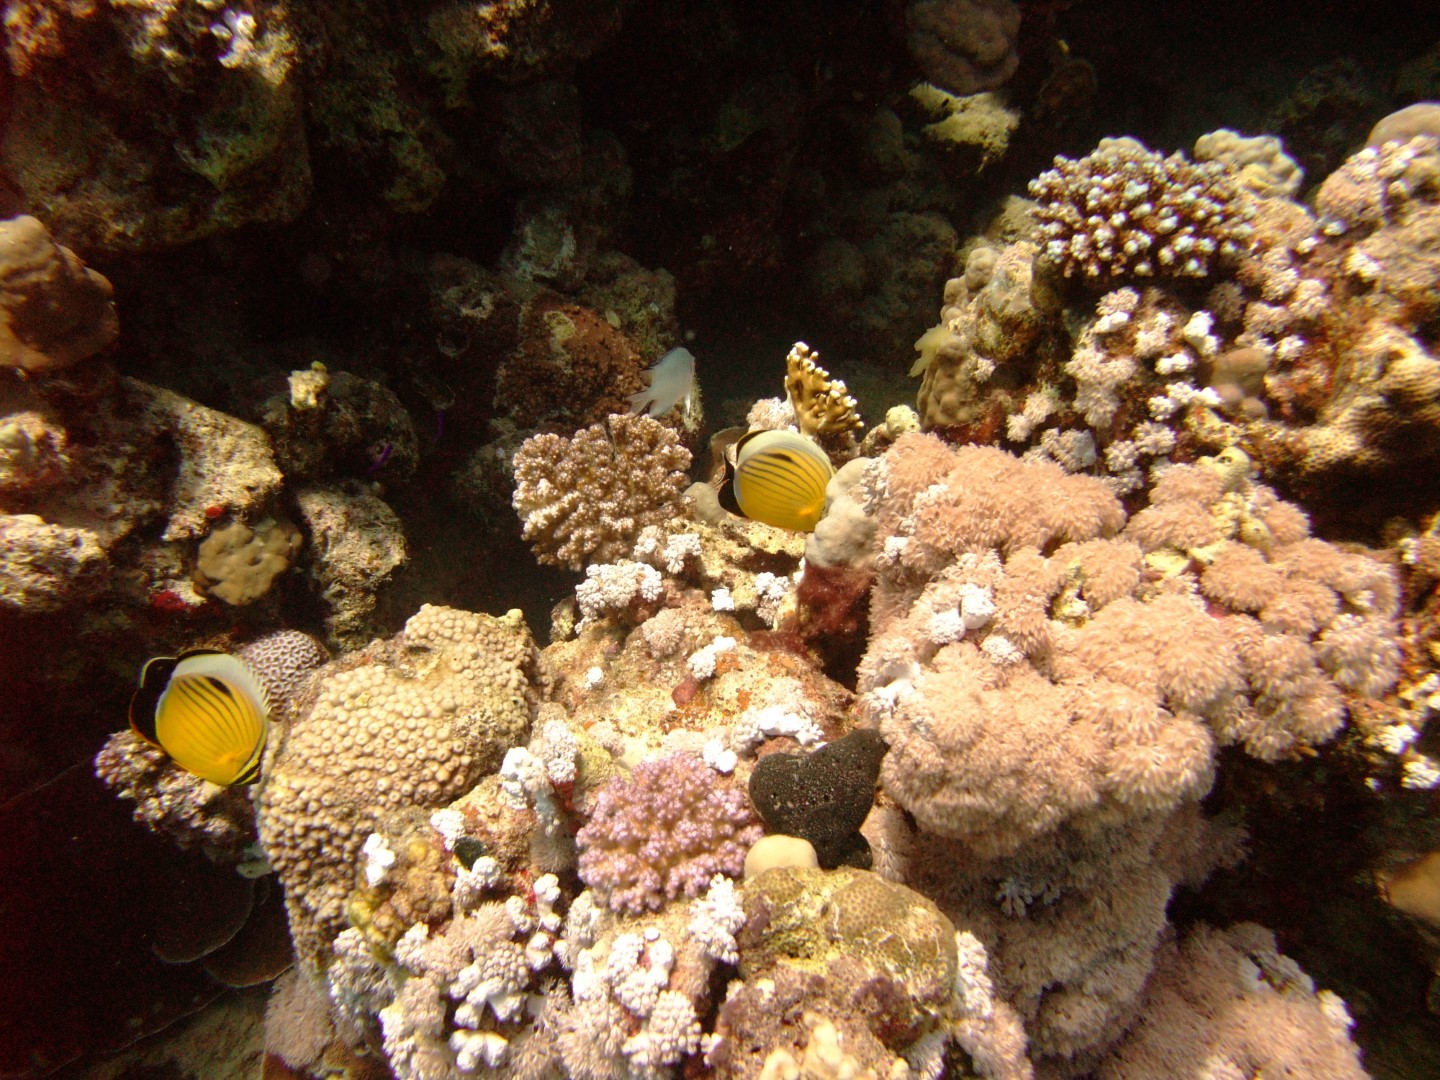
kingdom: Animalia
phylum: Chordata
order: Perciformes
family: Chaetodontidae
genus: Chaetodon
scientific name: Chaetodon austriacus
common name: Exquisite butterflyfish
